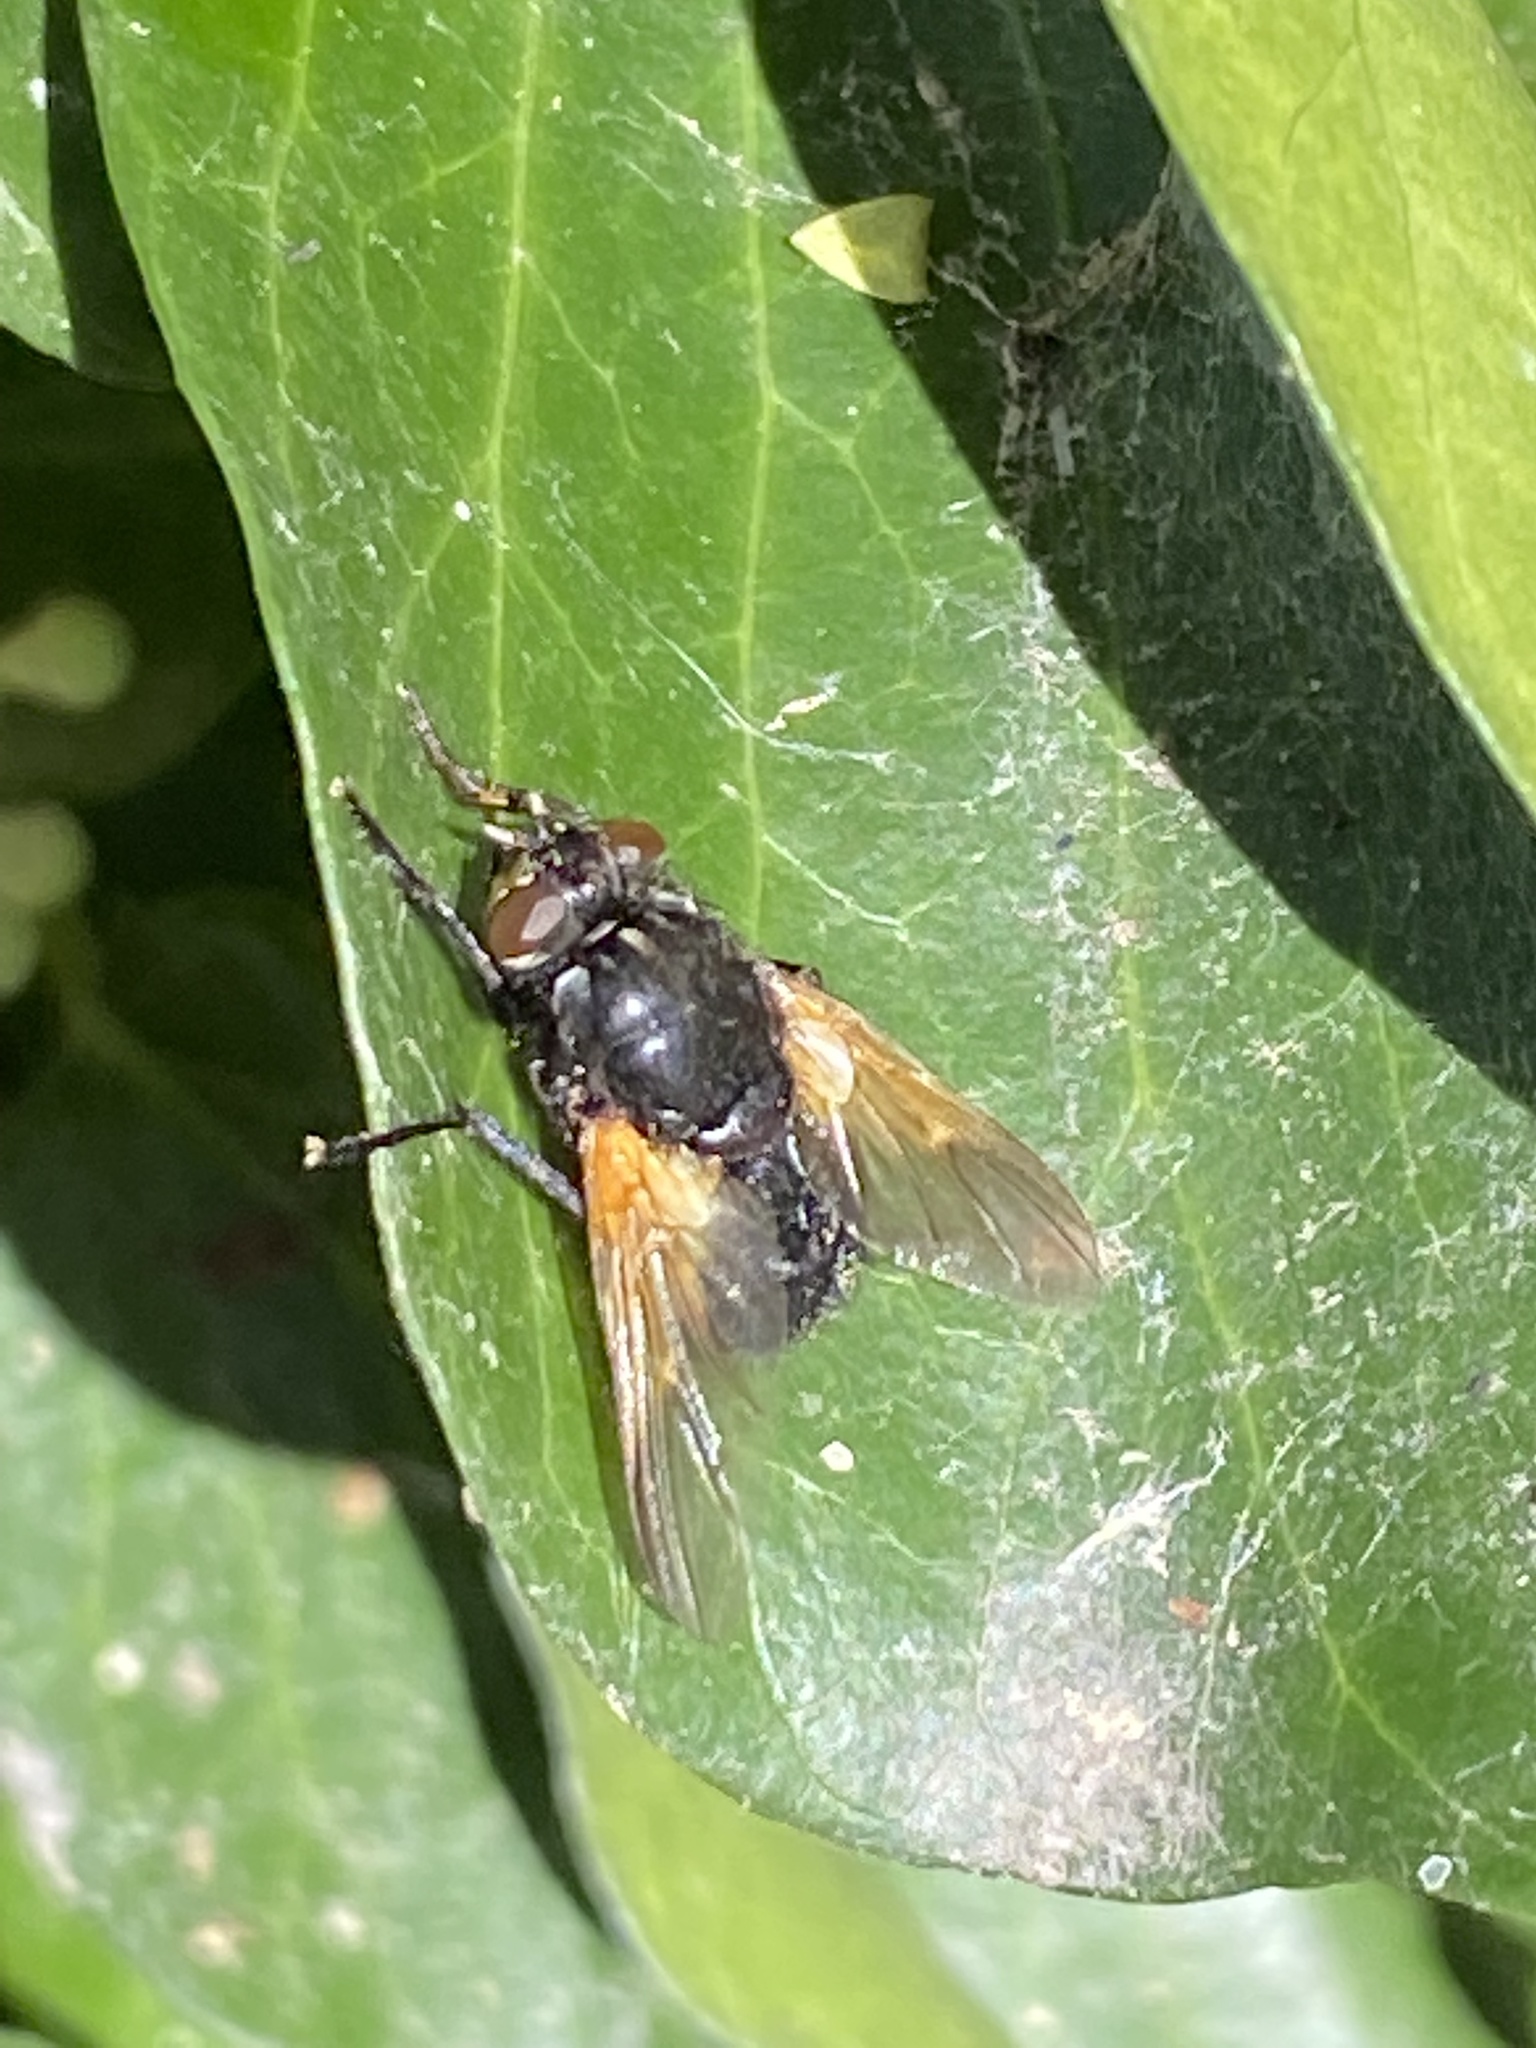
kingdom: Animalia
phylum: Arthropoda
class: Insecta
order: Diptera
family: Muscidae
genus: Mesembrina
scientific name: Mesembrina meridiana
